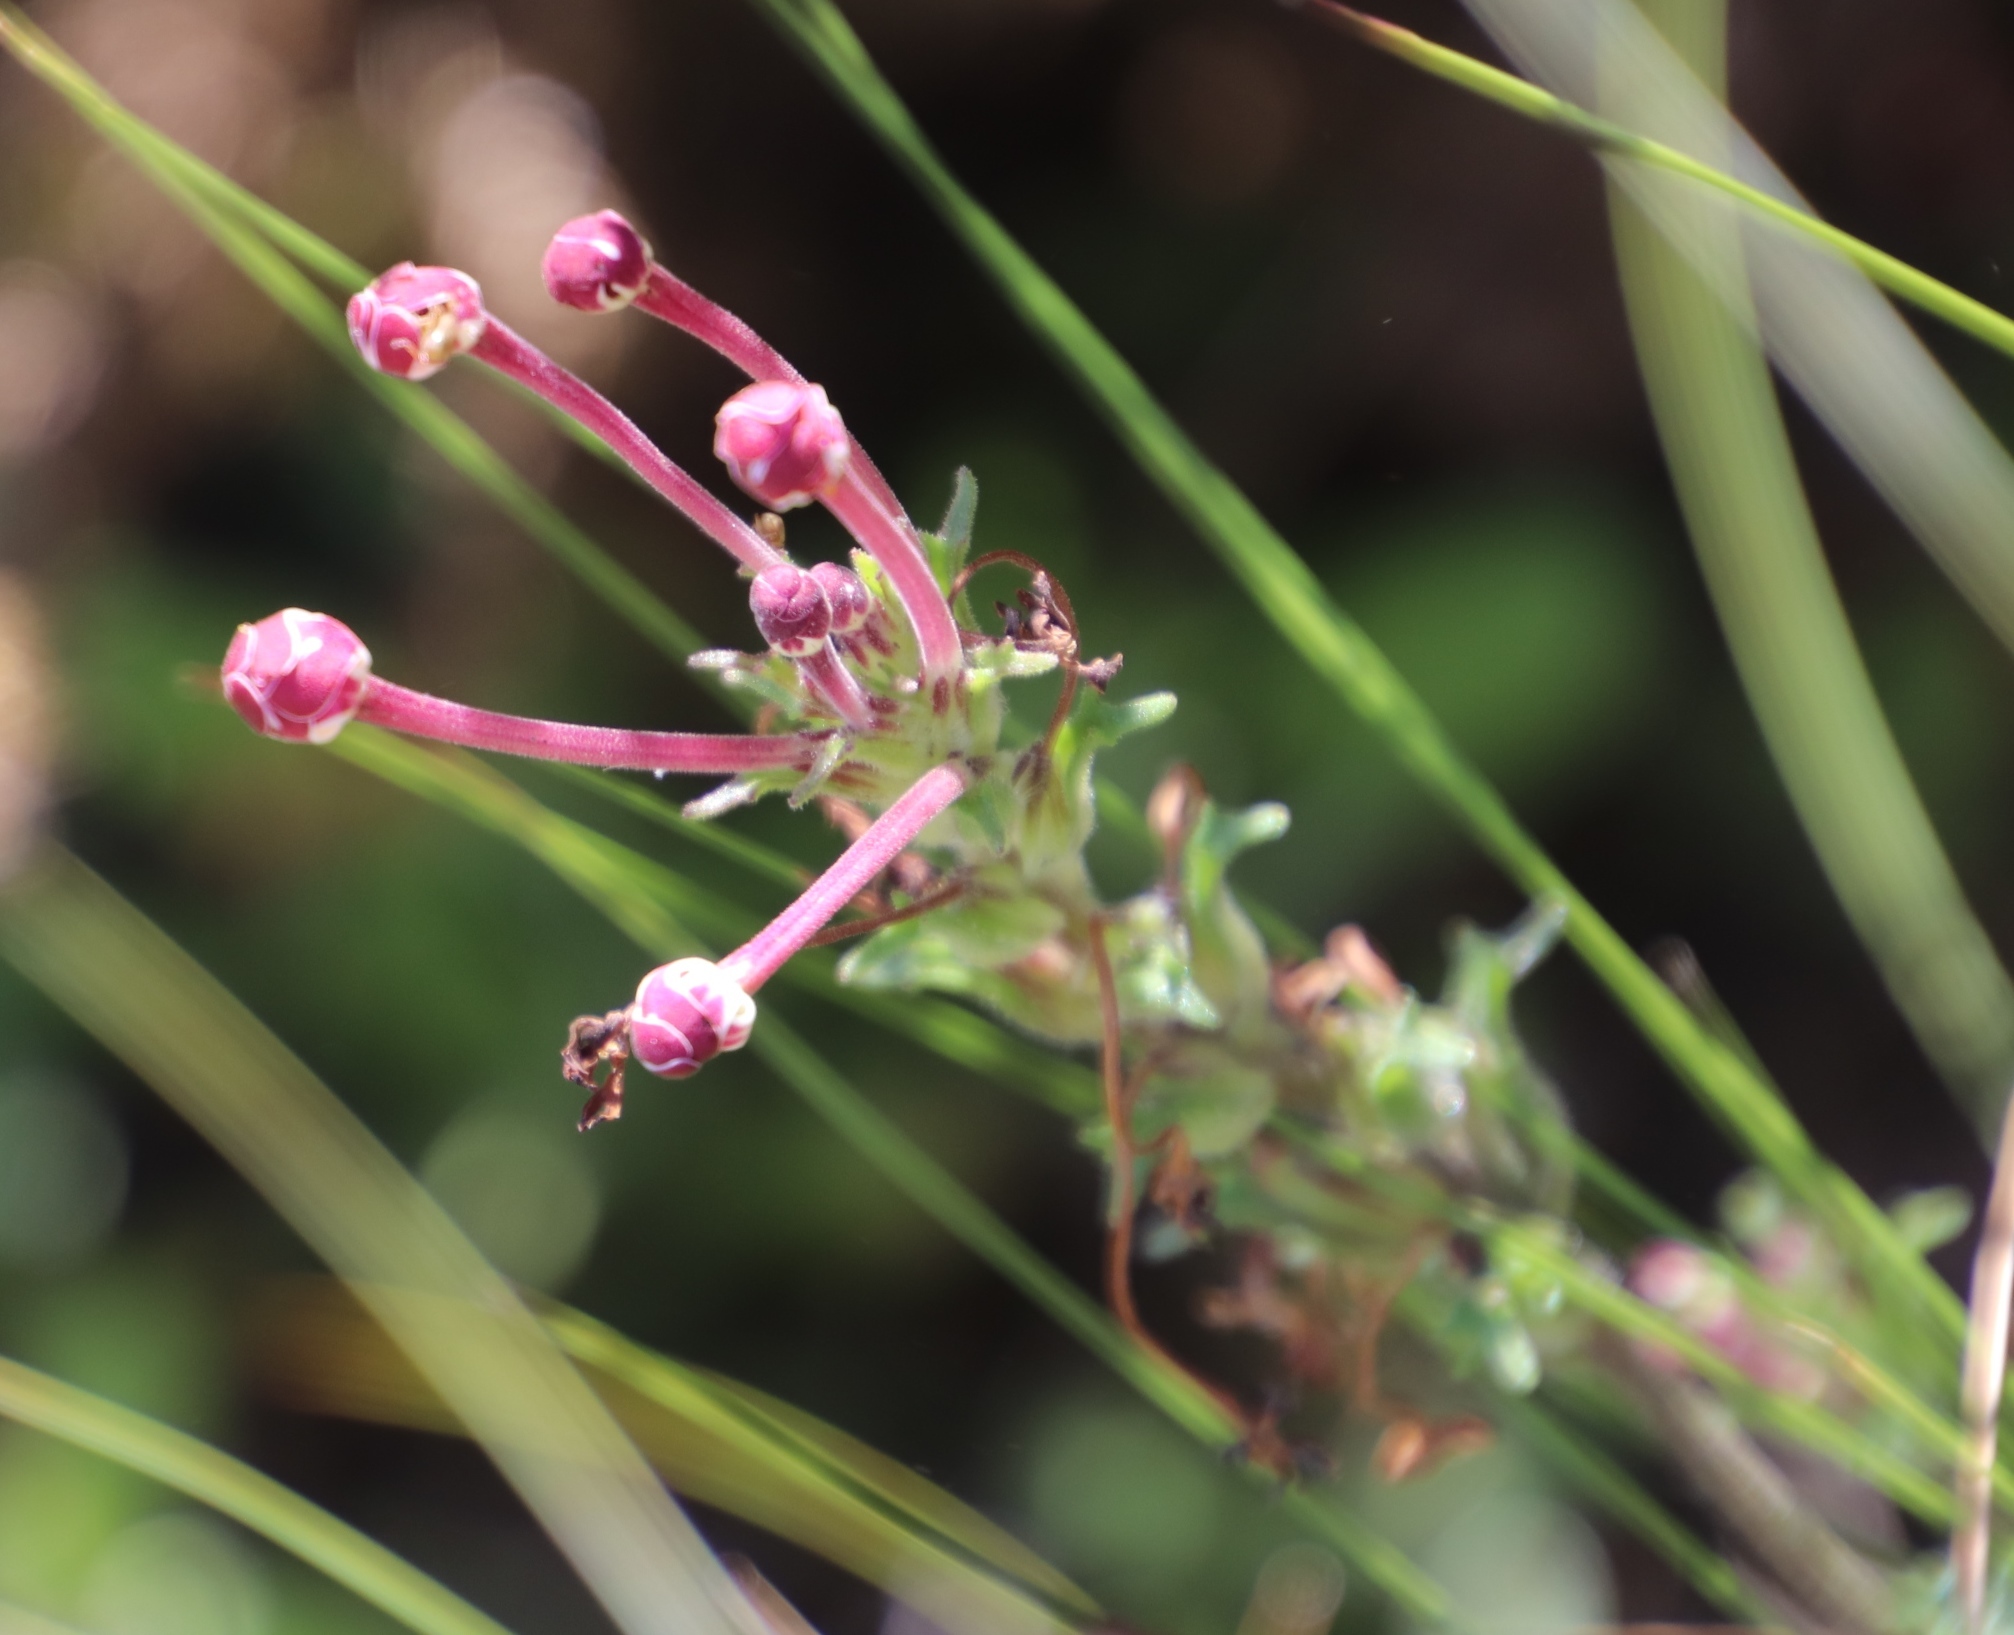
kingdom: Plantae
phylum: Tracheophyta
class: Magnoliopsida
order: Lamiales
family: Scrophulariaceae
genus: Zaluzianskya
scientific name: Zaluzianskya capensis
